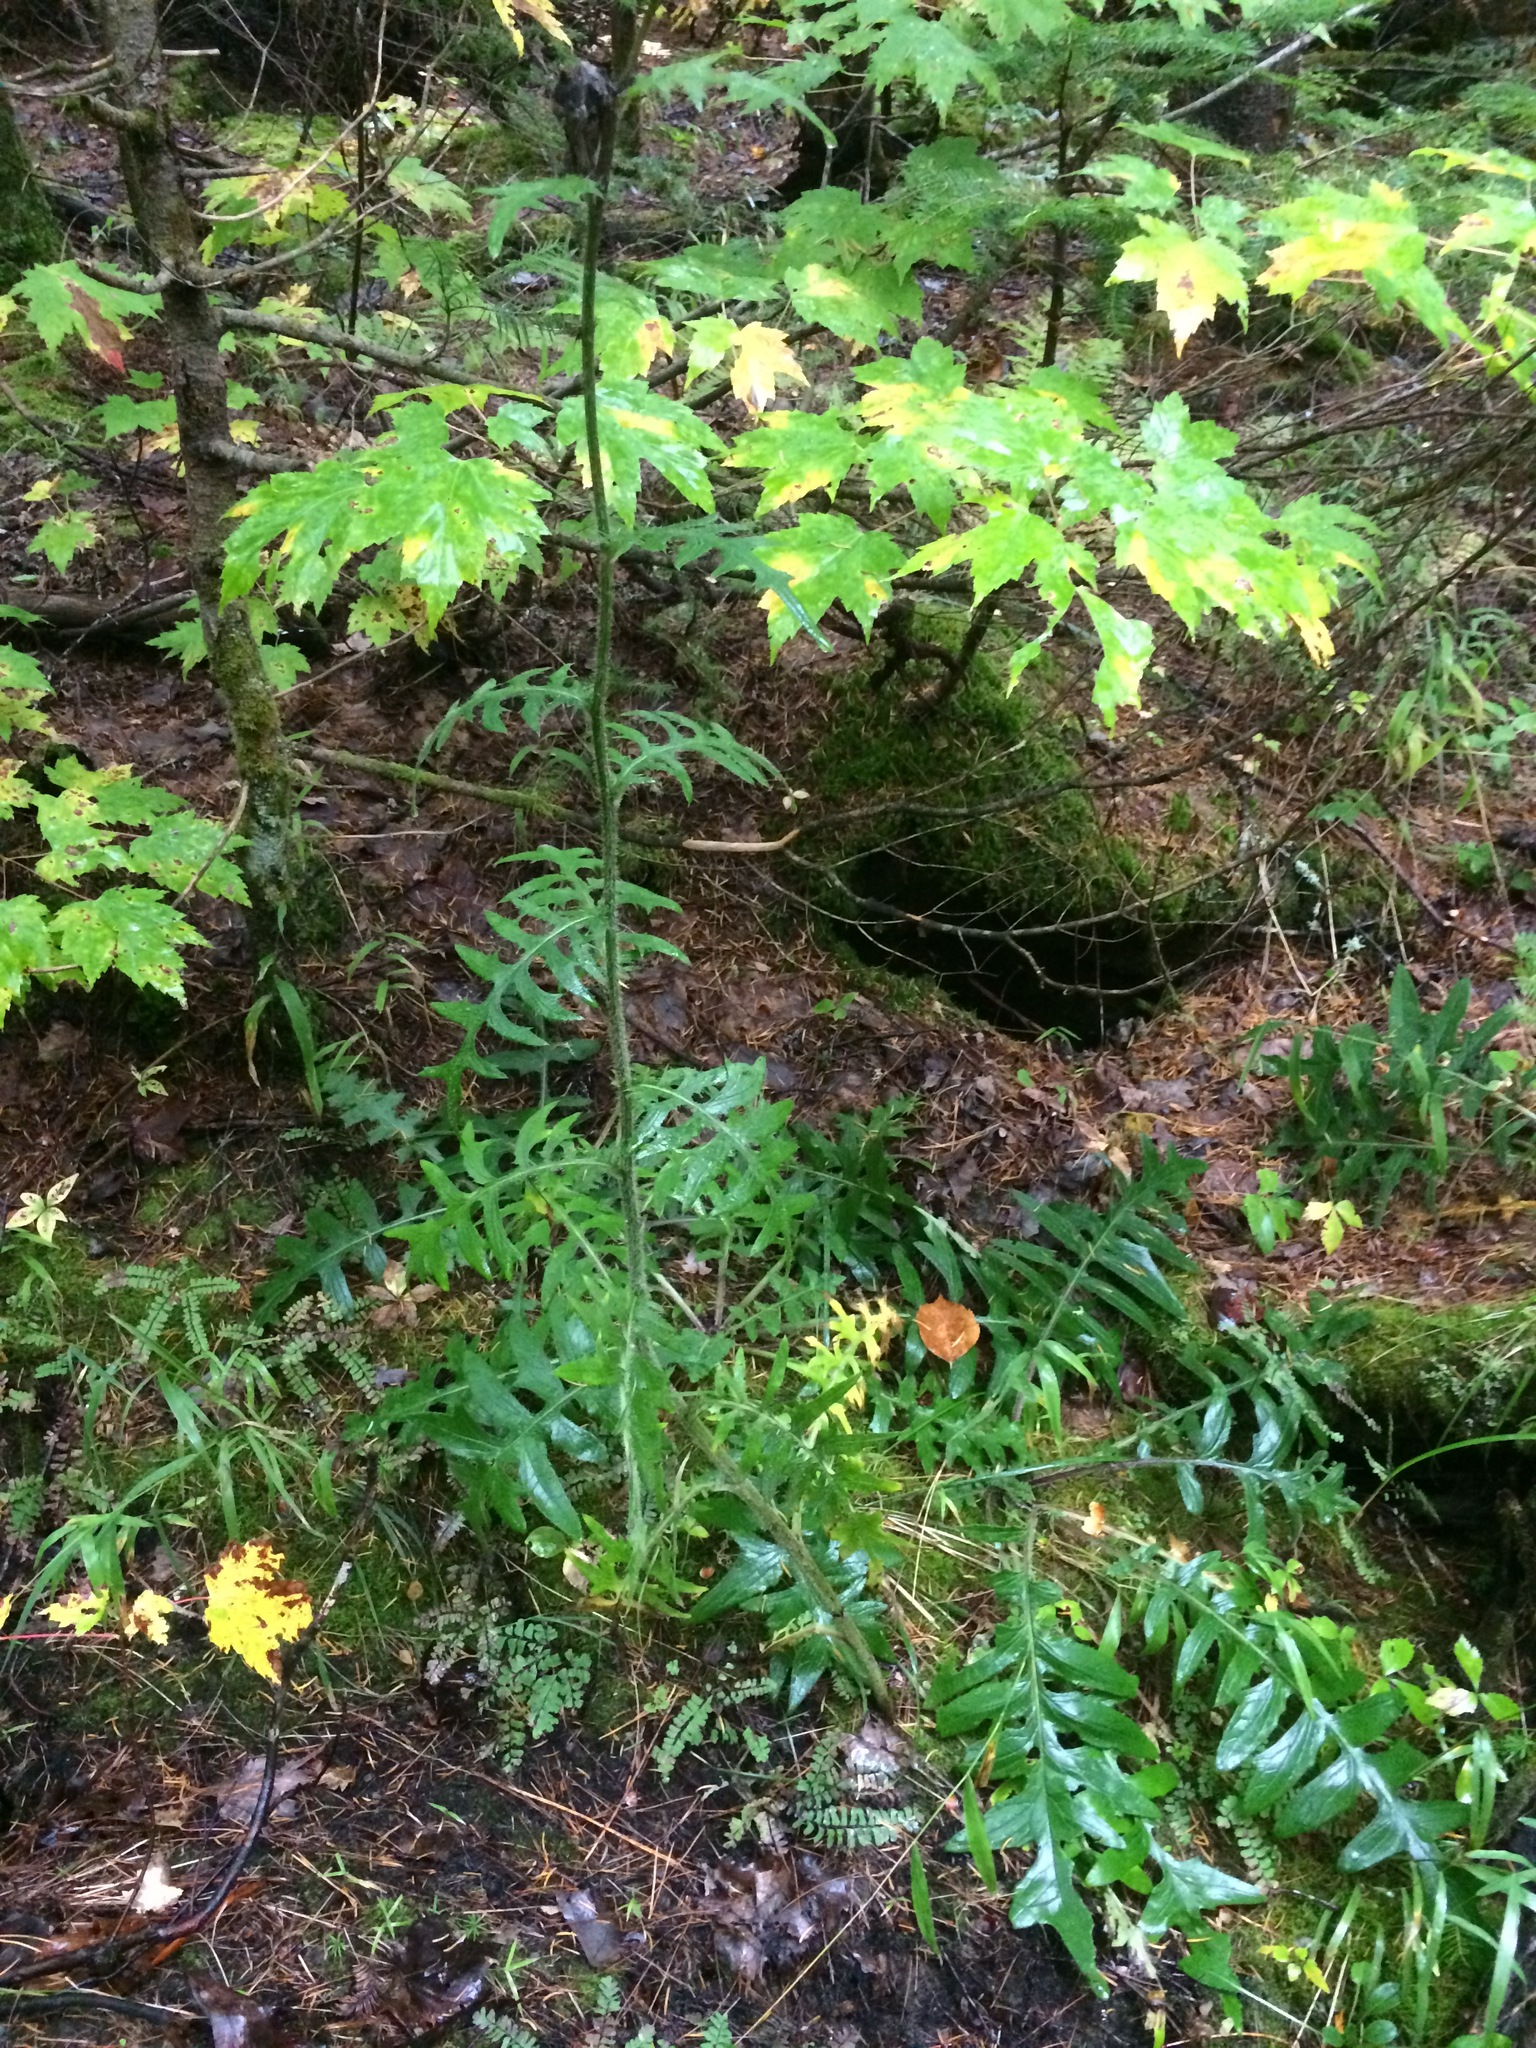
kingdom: Plantae
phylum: Tracheophyta
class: Magnoliopsida
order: Asterales
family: Asteraceae
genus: Cirsium
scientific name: Cirsium muticum
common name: Dunce-nettle
